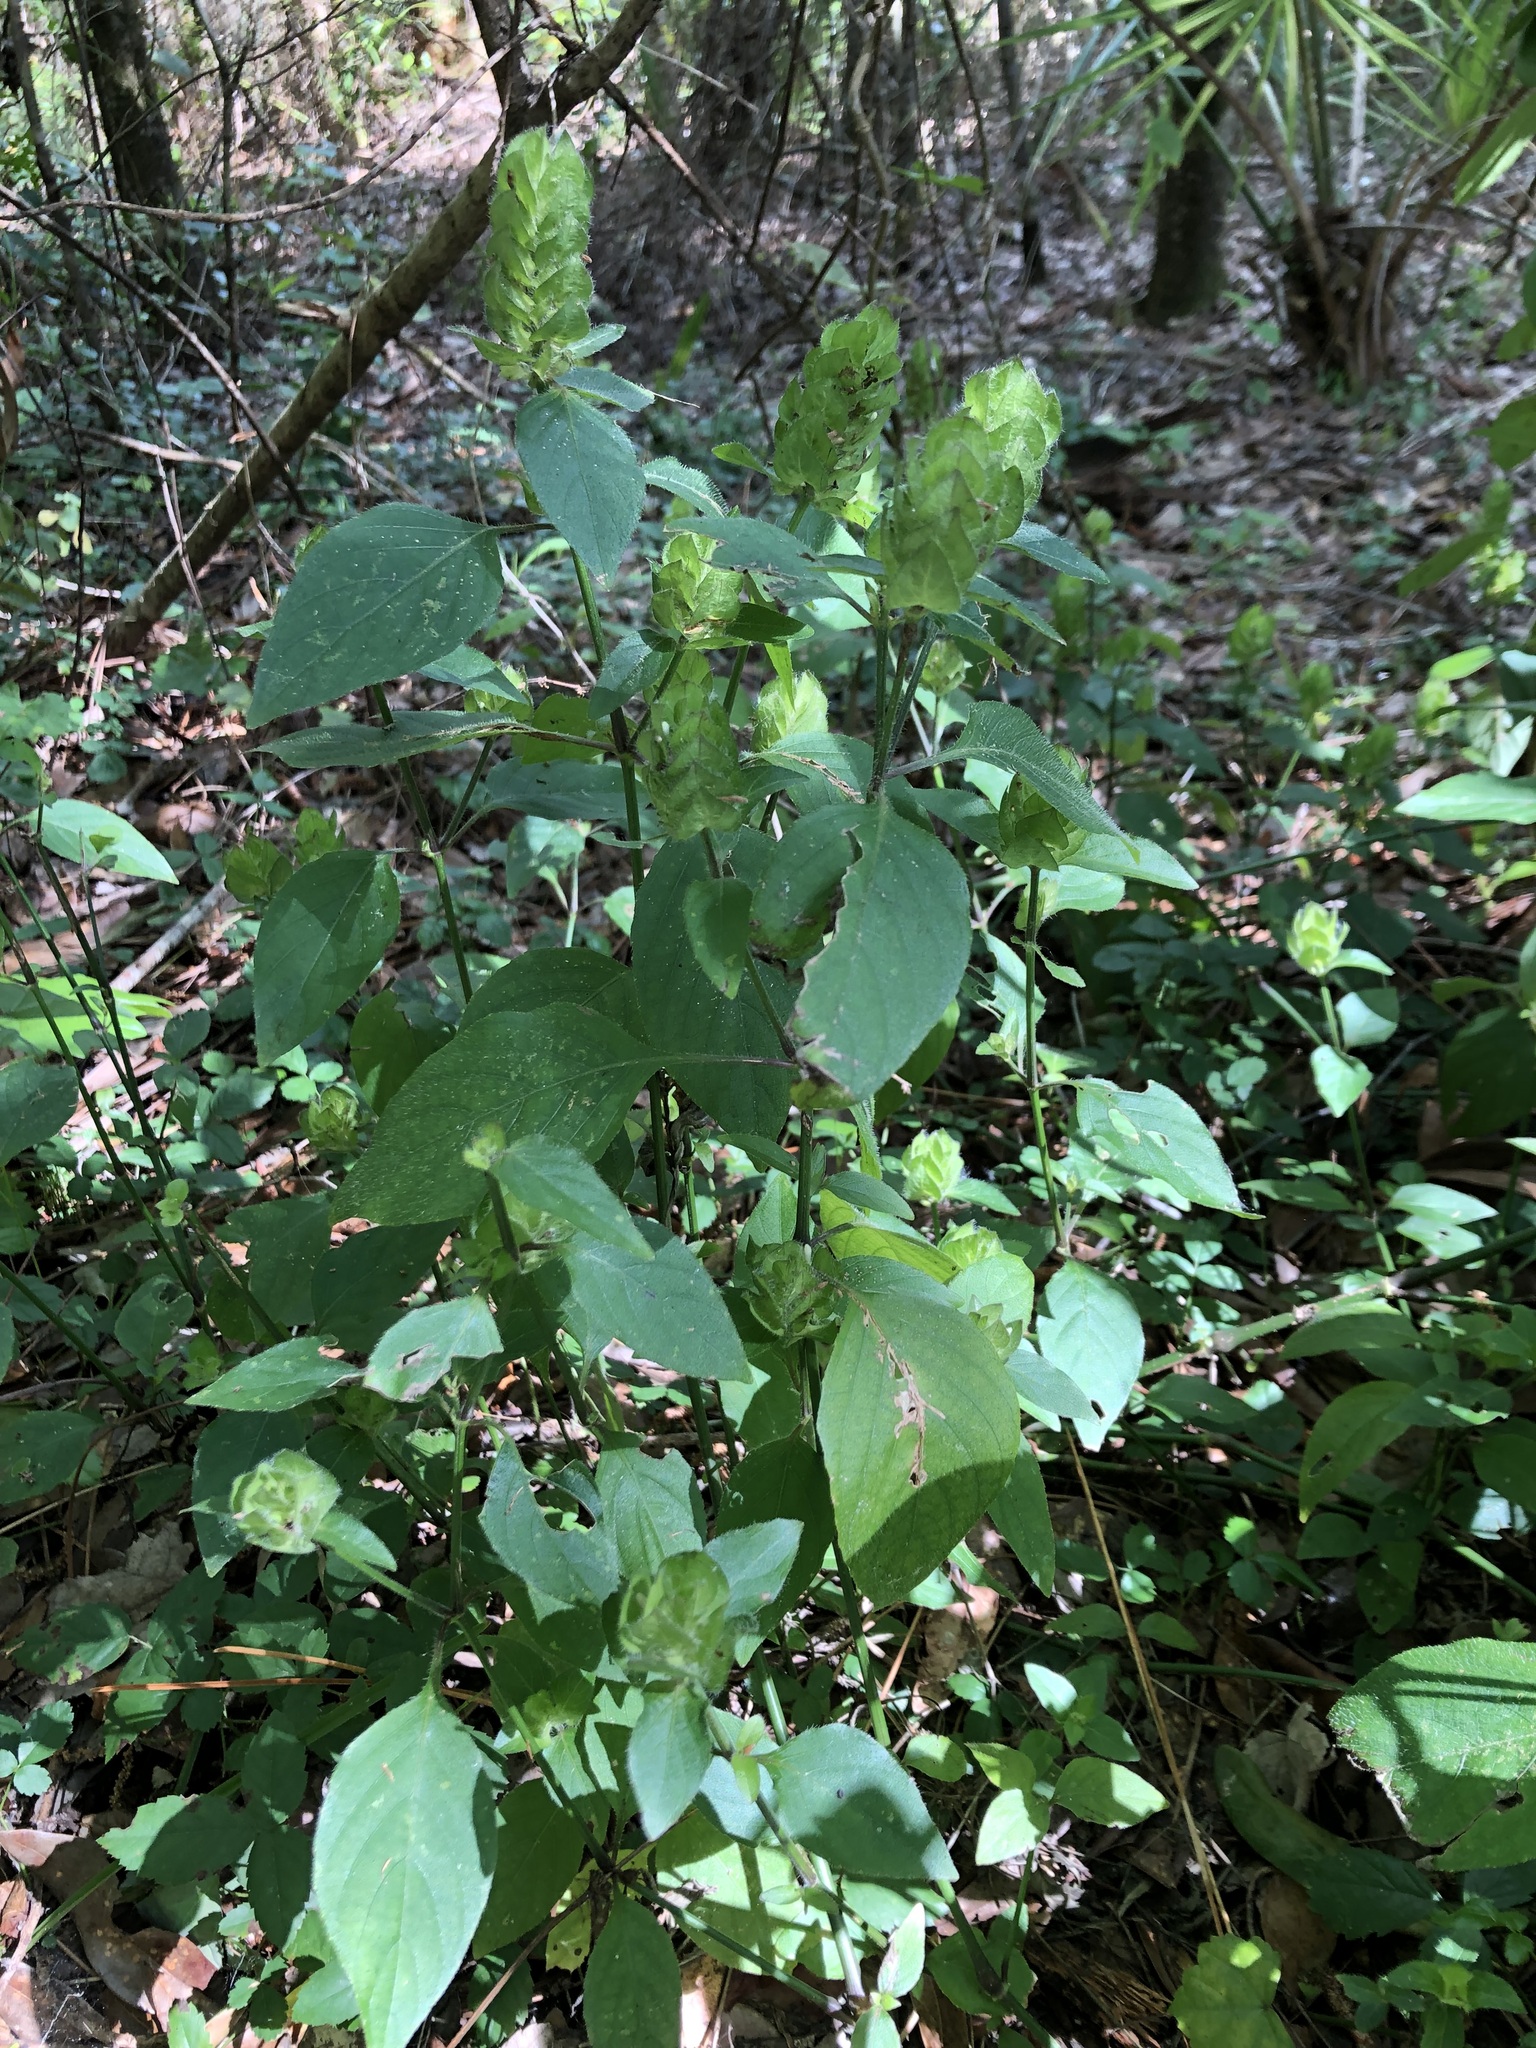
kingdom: Plantae
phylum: Tracheophyta
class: Magnoliopsida
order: Lamiales
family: Acanthaceae
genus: Ruellia
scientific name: Ruellia blechum
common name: Browne's blechum
